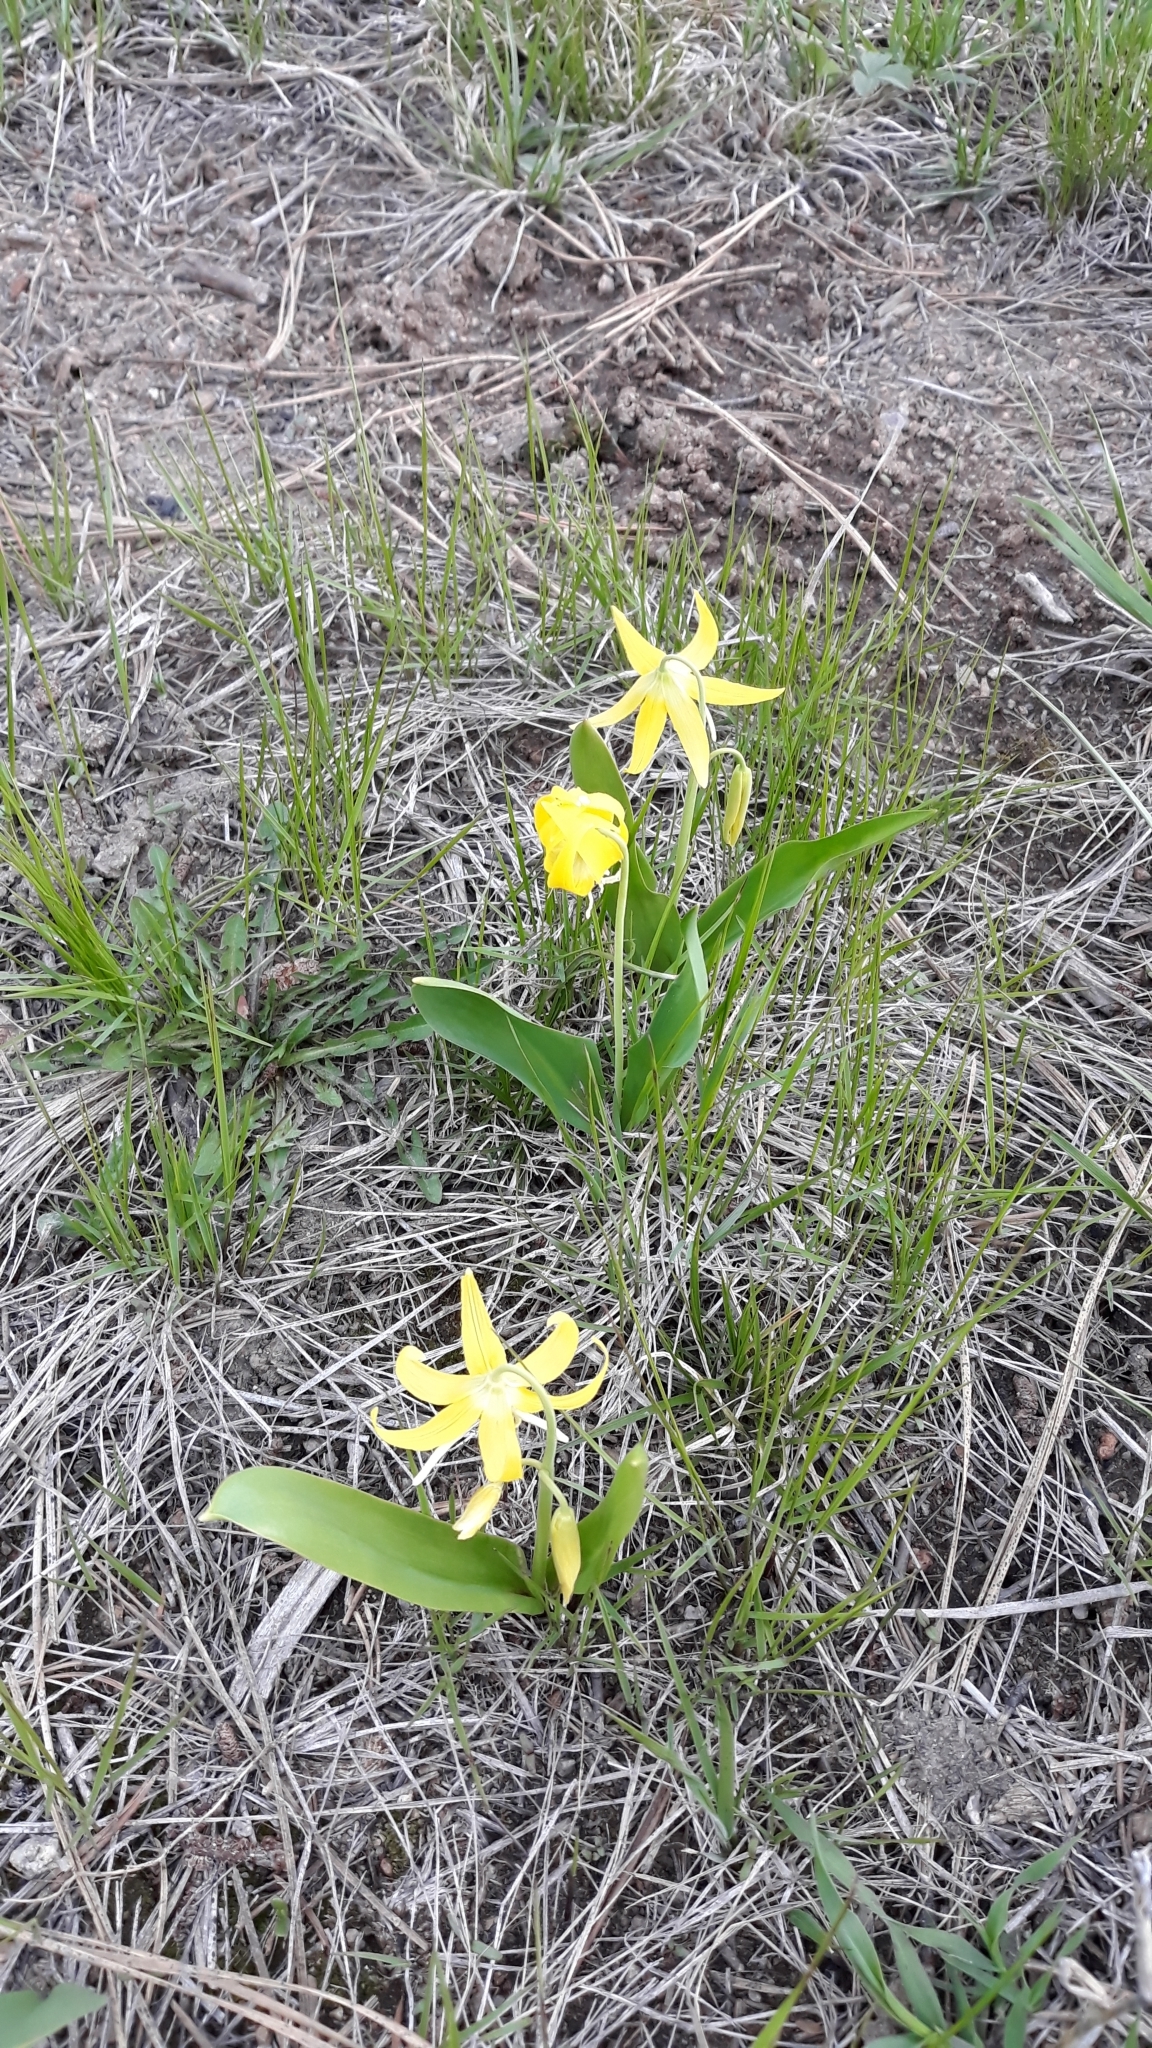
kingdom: Plantae
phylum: Tracheophyta
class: Liliopsida
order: Liliales
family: Liliaceae
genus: Erythronium
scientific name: Erythronium grandiflorum
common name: Avalanche-lily
